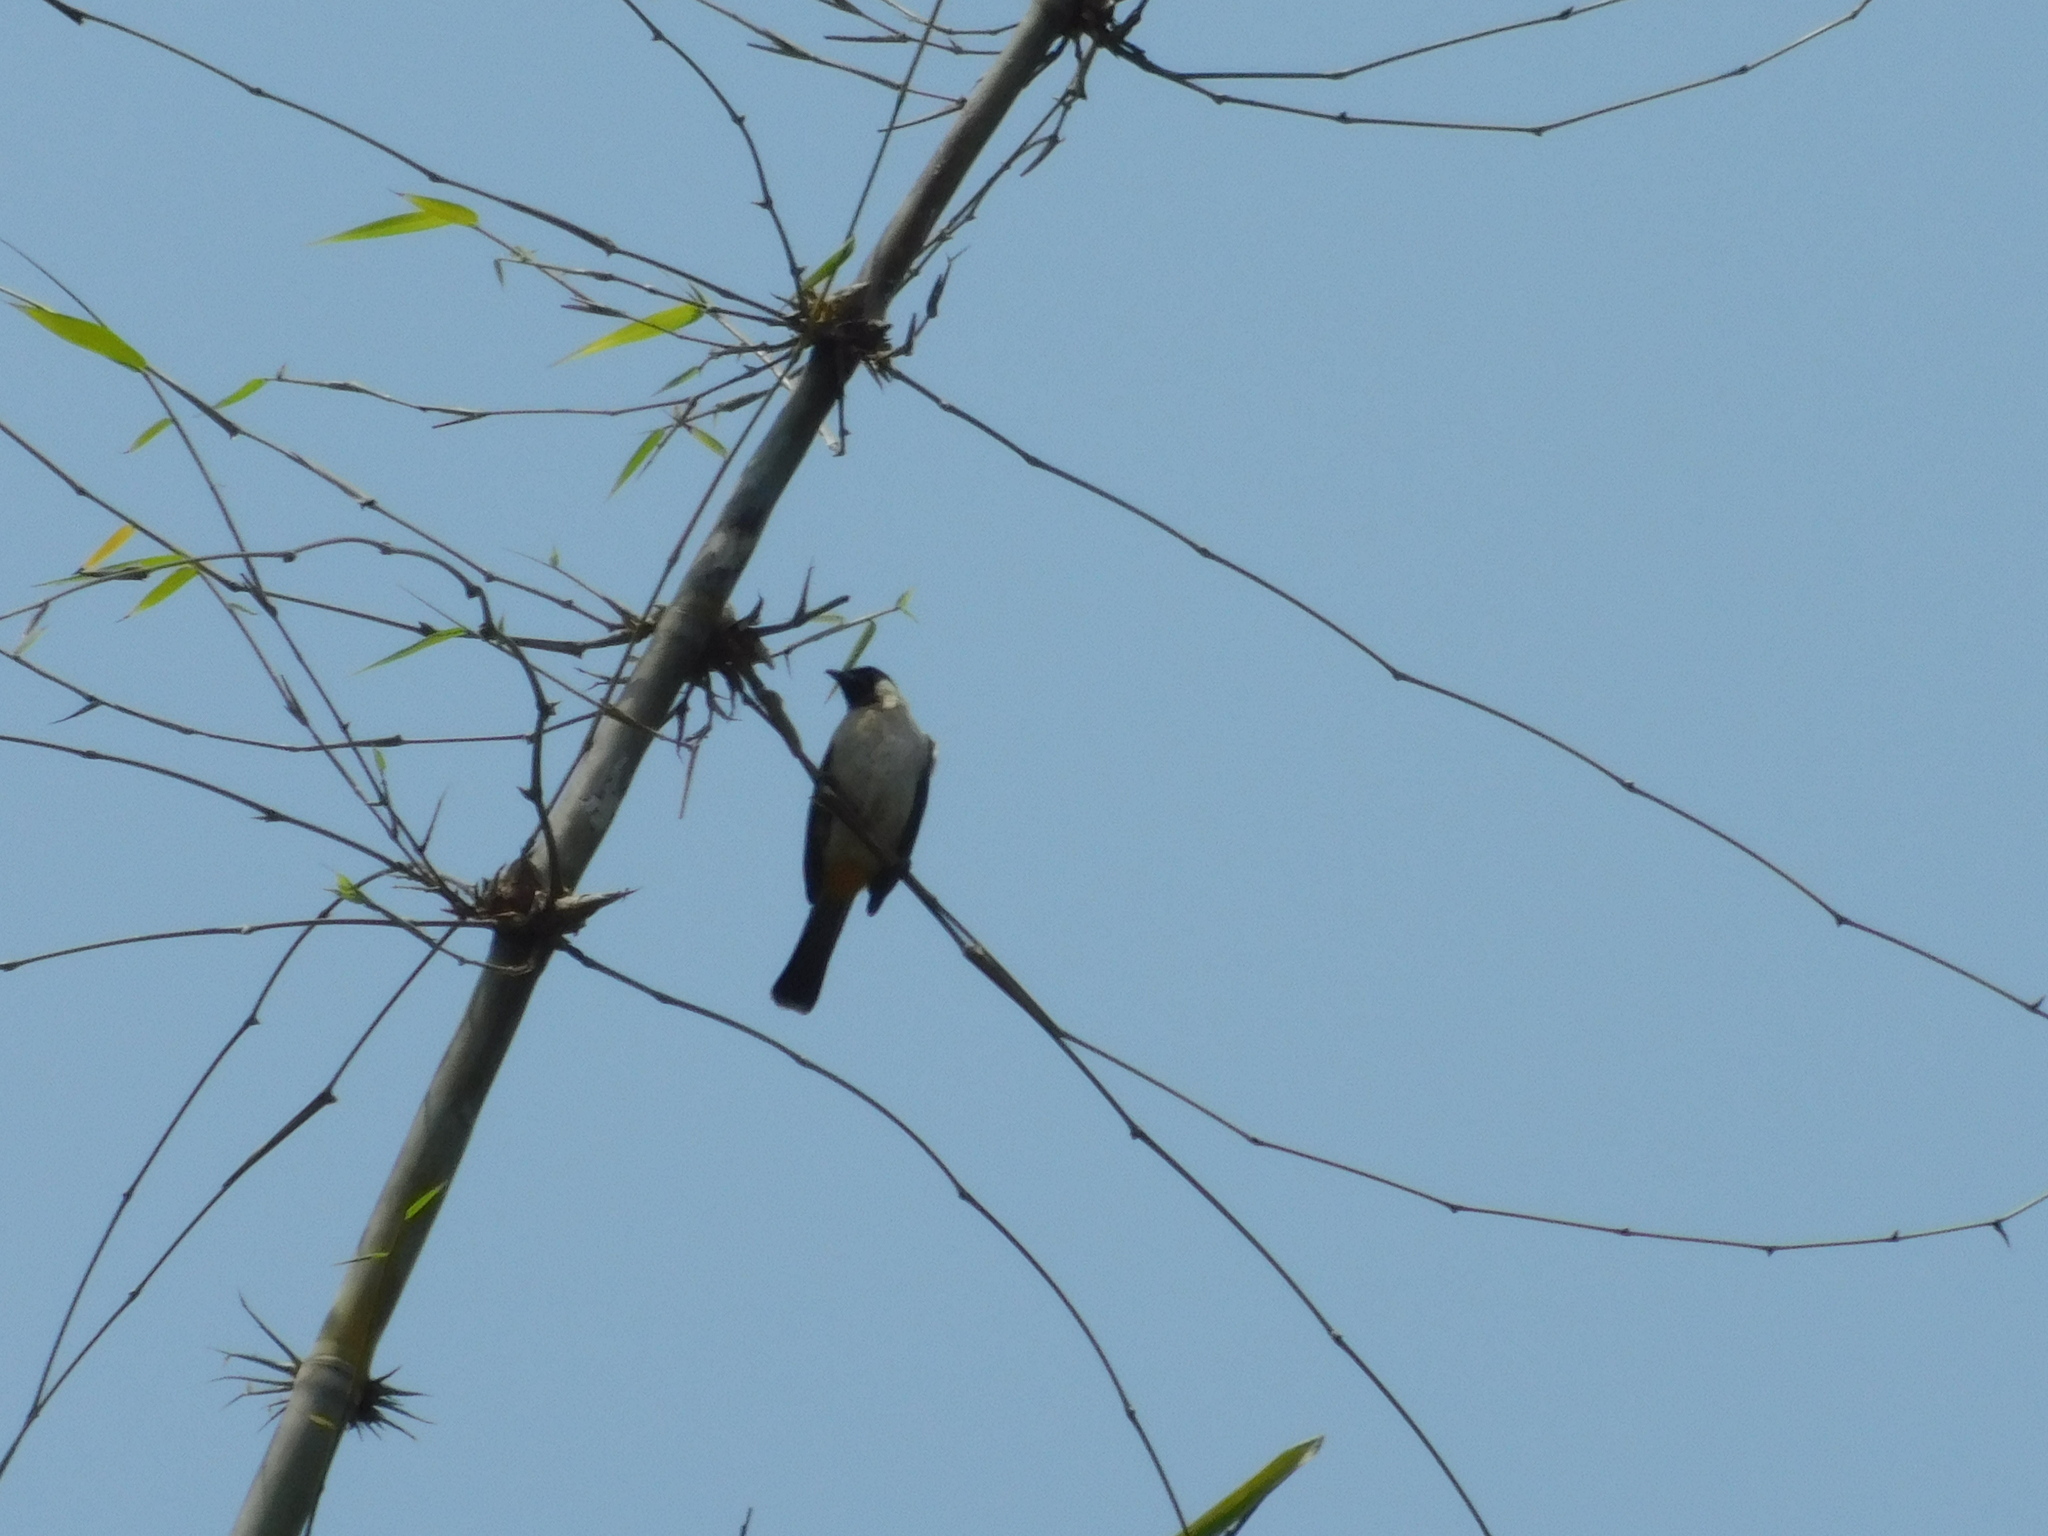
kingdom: Animalia
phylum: Chordata
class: Aves
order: Passeriformes
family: Pycnonotidae
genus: Pycnonotus
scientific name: Pycnonotus aurigaster
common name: Sooty-headed bulbul
